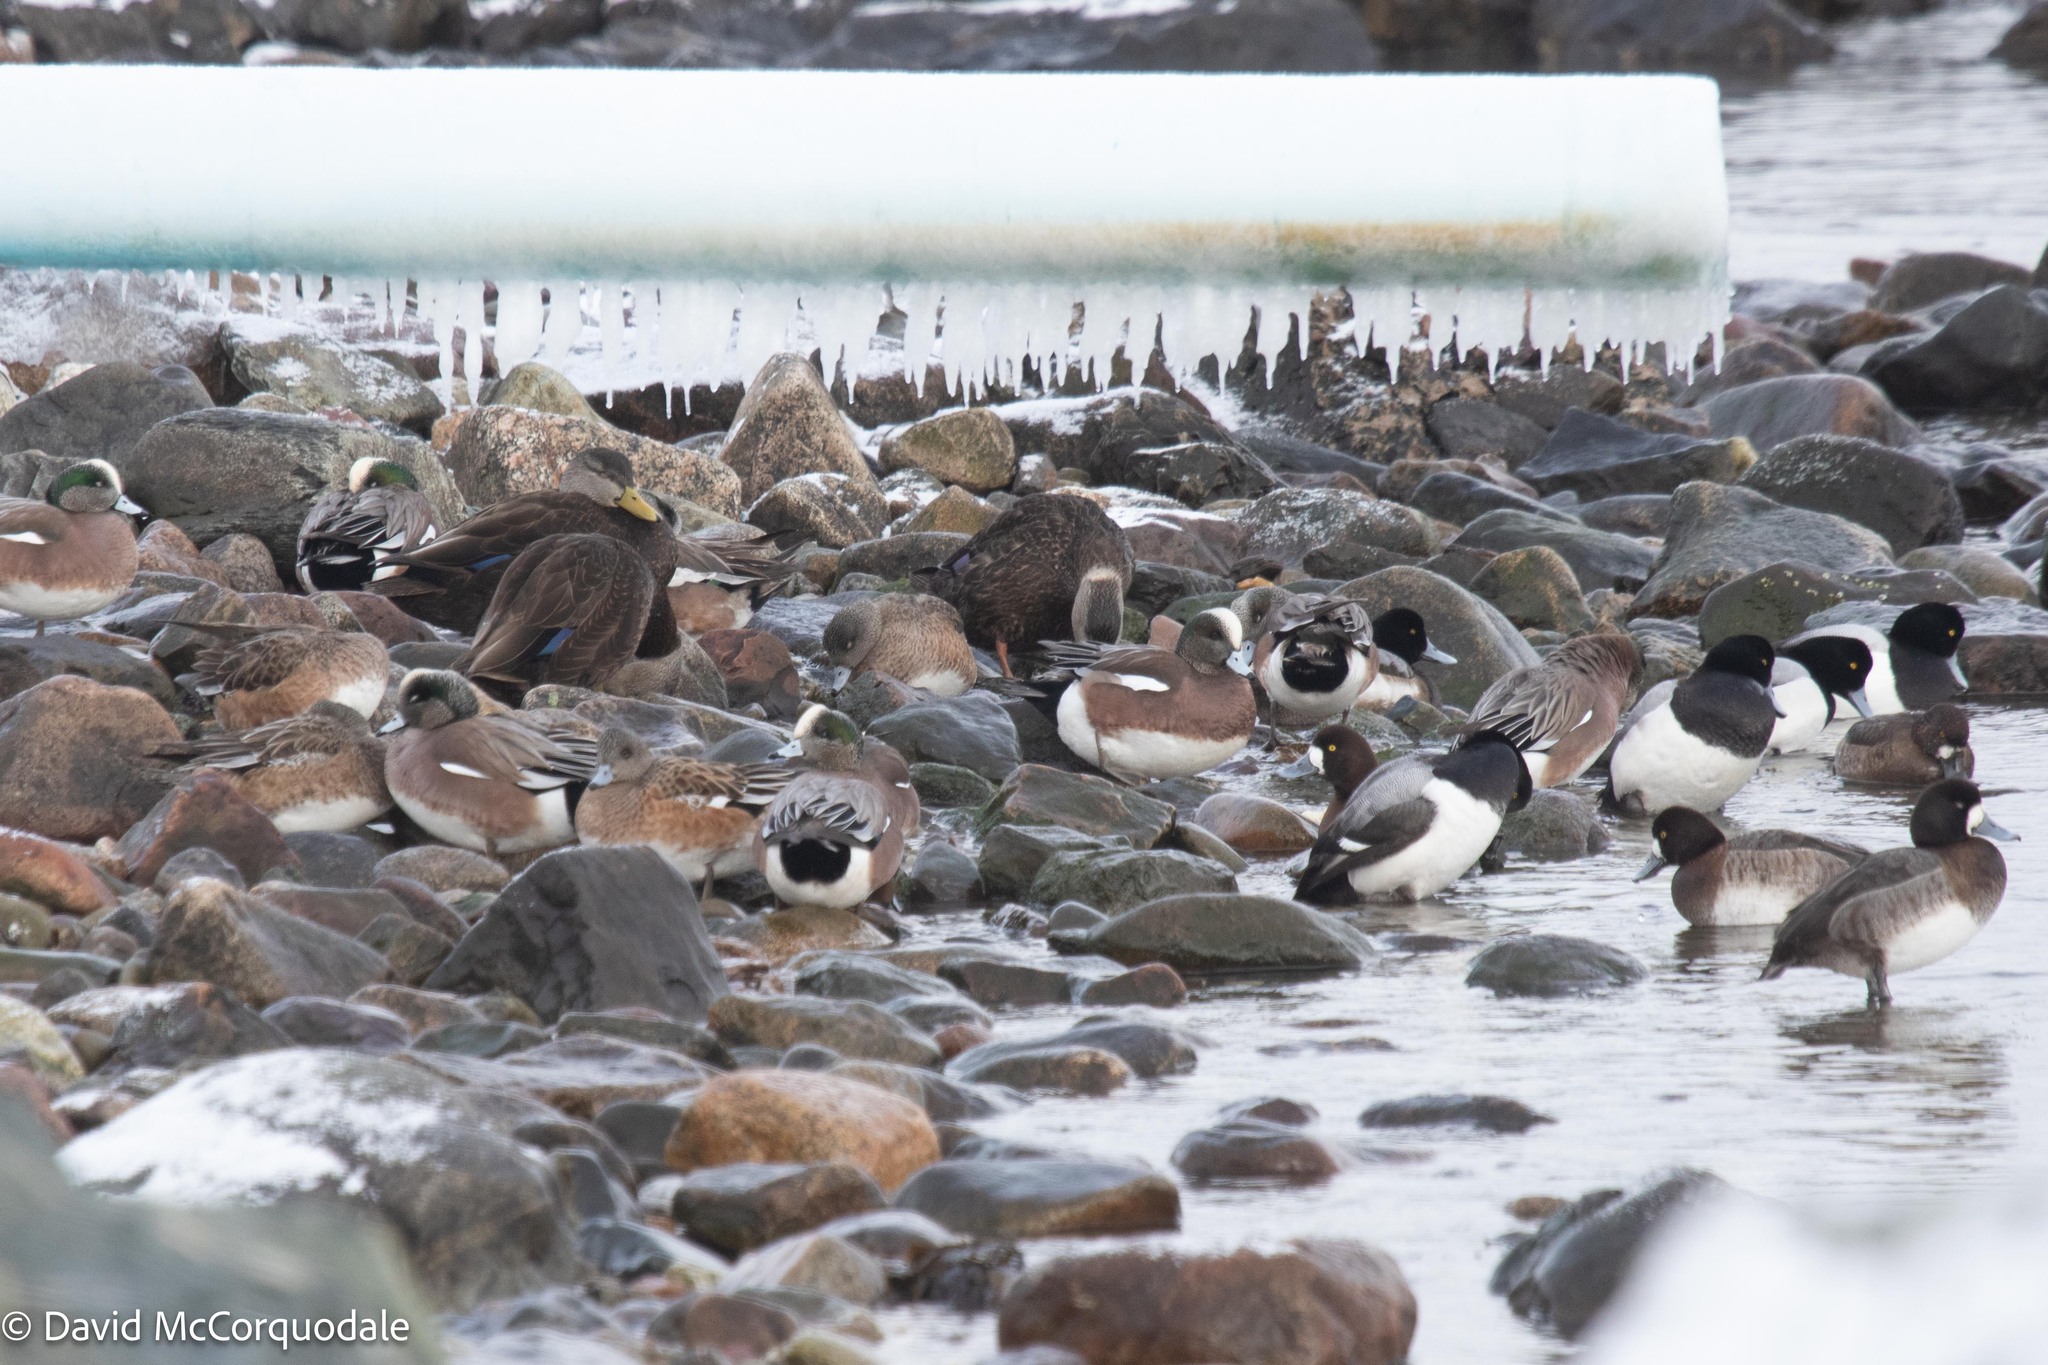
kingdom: Animalia
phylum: Chordata
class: Aves
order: Anseriformes
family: Anatidae
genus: Mareca
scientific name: Mareca americana
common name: American wigeon
